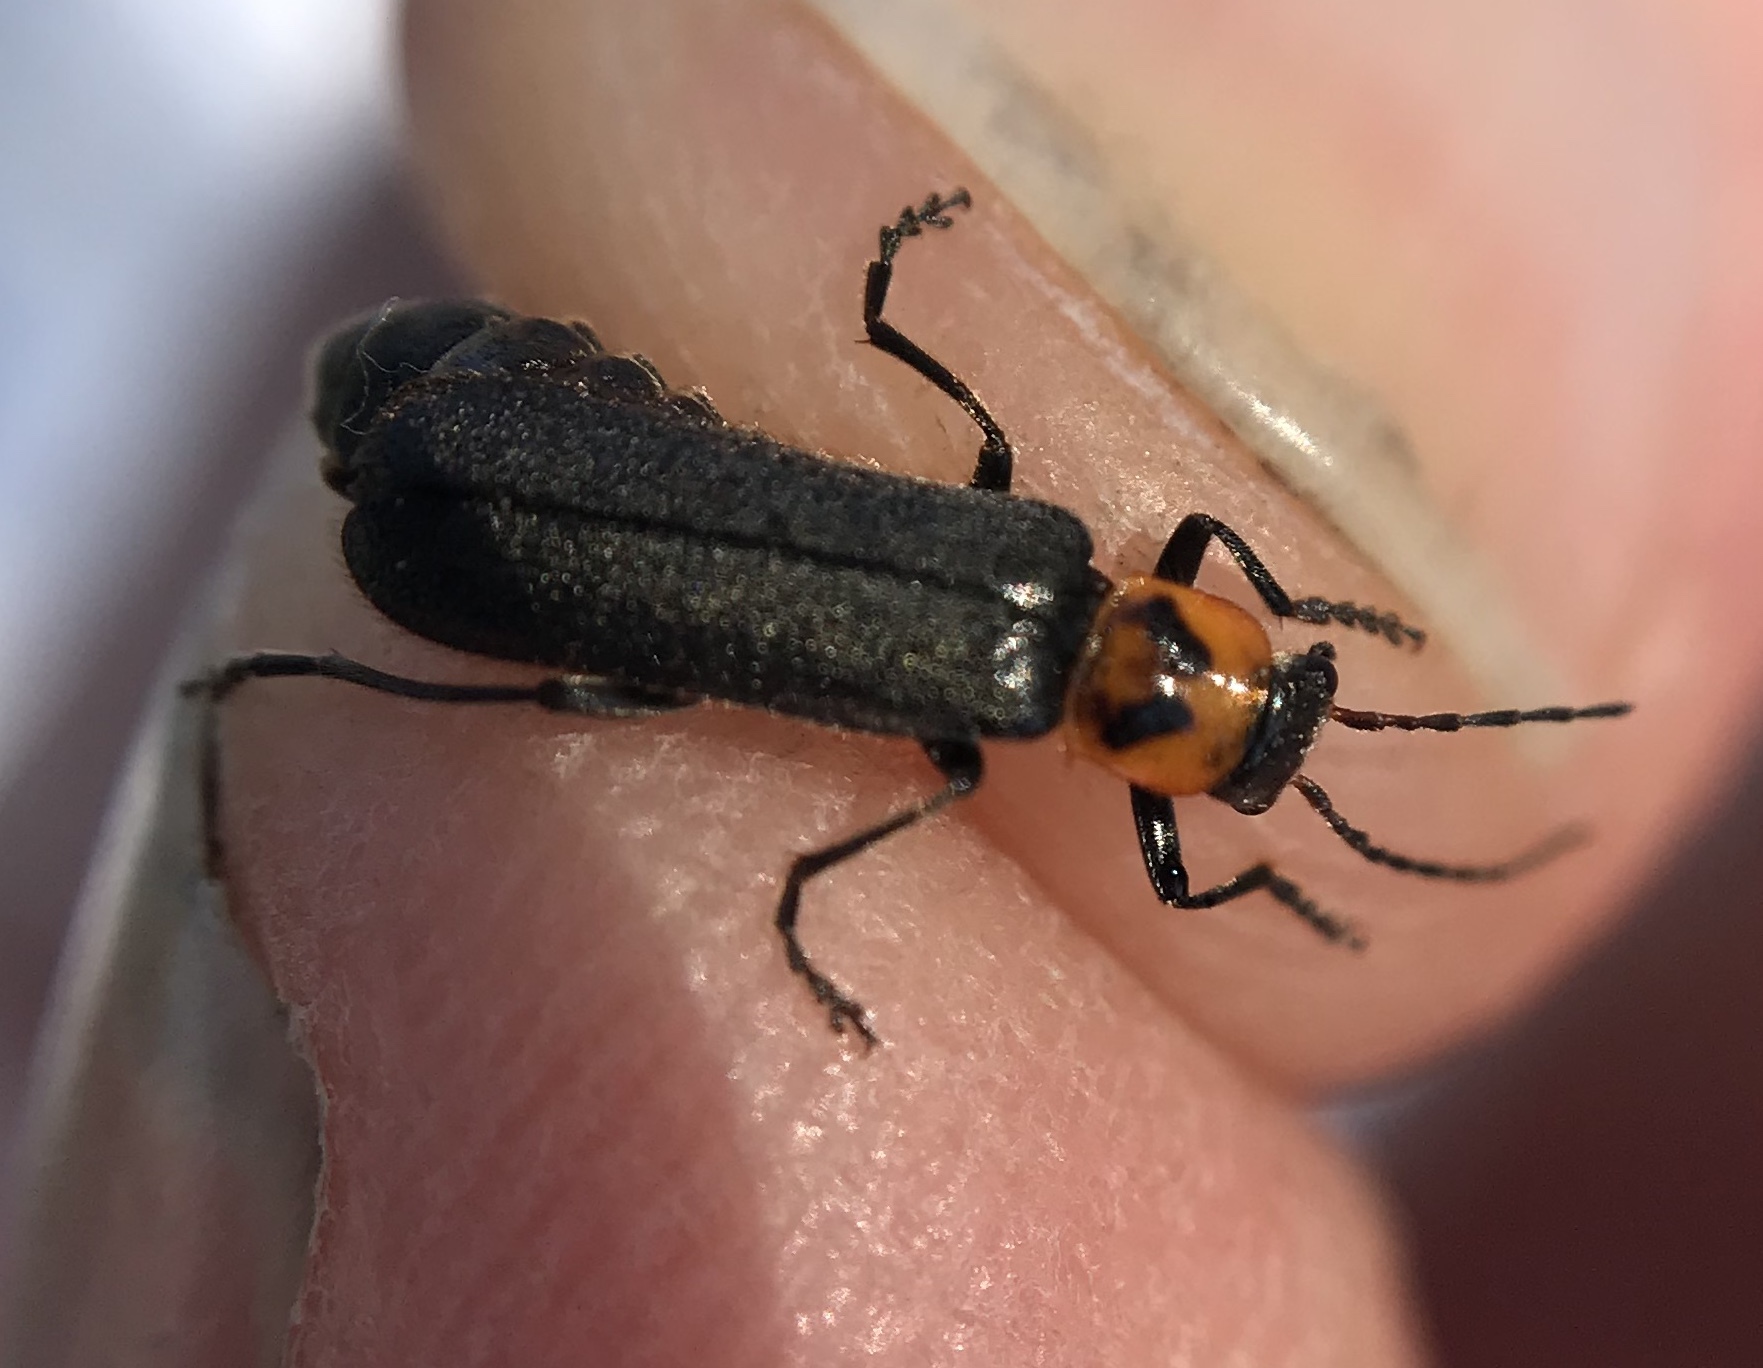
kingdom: Animalia
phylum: Arthropoda
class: Insecta
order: Coleoptera
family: Cantharidae
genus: Cyrtomoptera
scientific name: Cyrtomoptera divisa
